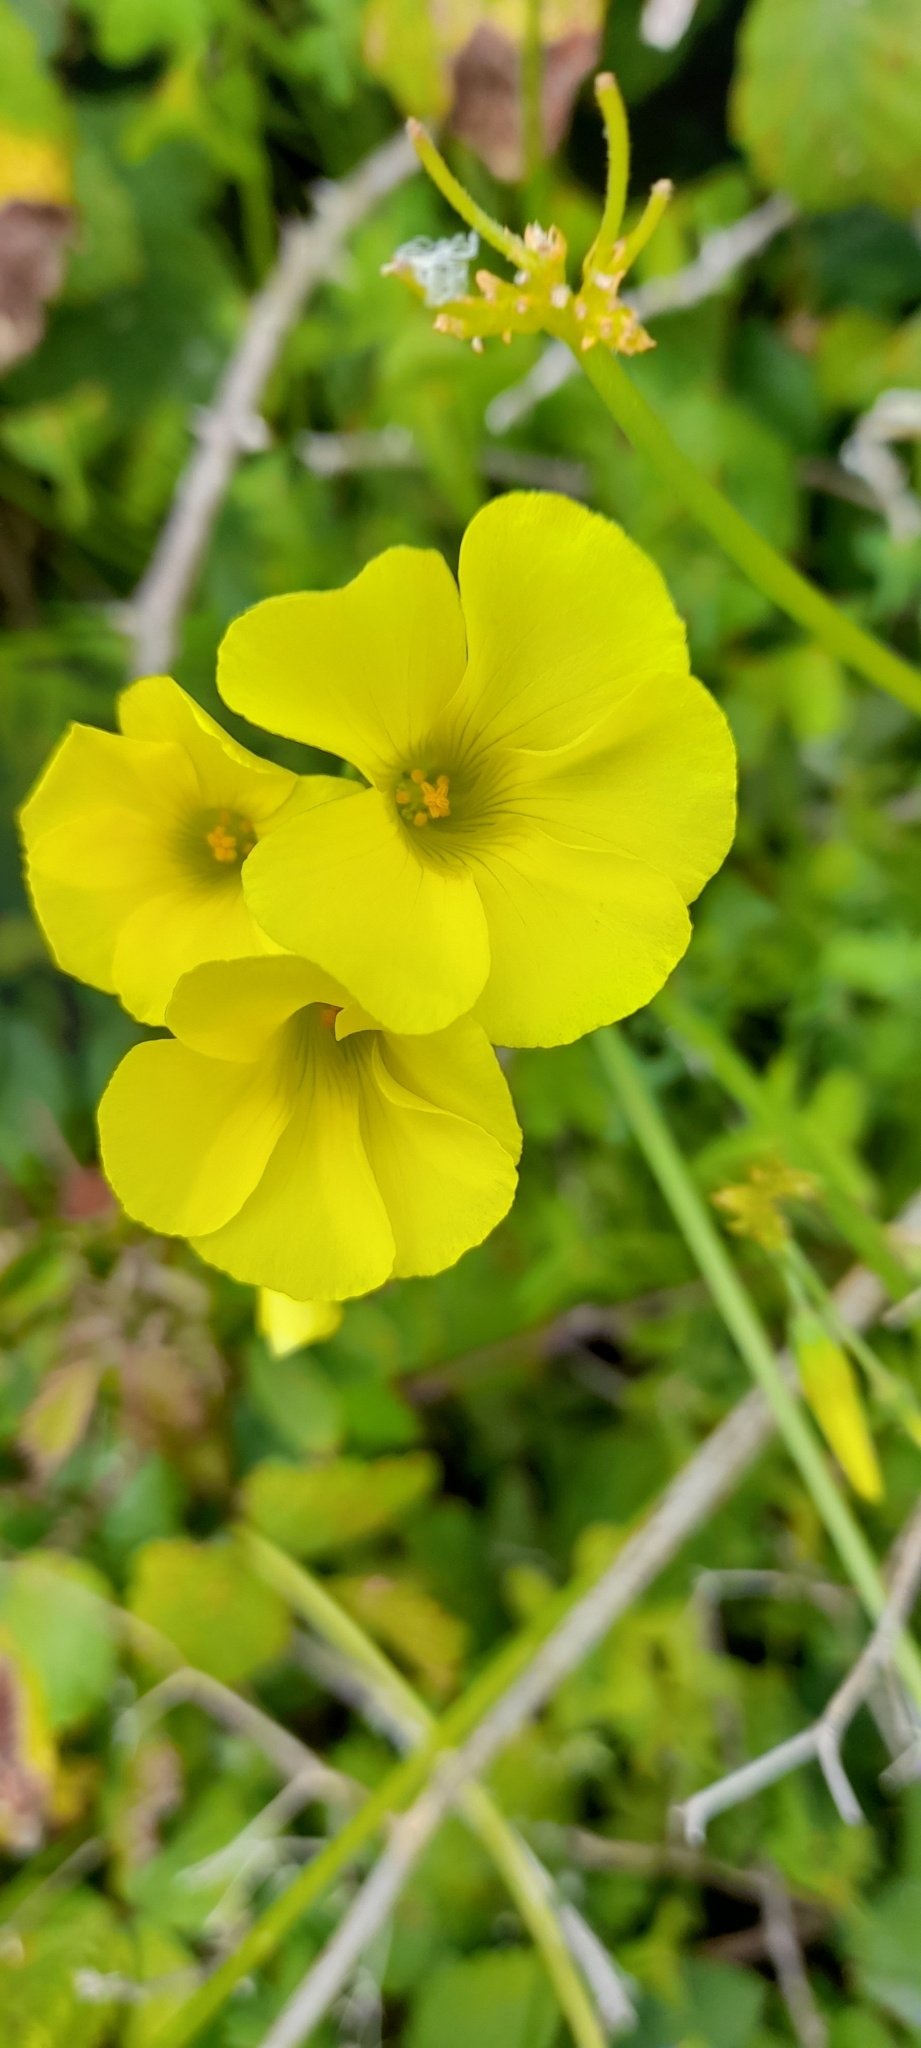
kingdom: Plantae
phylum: Tracheophyta
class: Magnoliopsida
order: Oxalidales
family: Oxalidaceae
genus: Oxalis
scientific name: Oxalis pes-caprae
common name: Bermuda-buttercup
